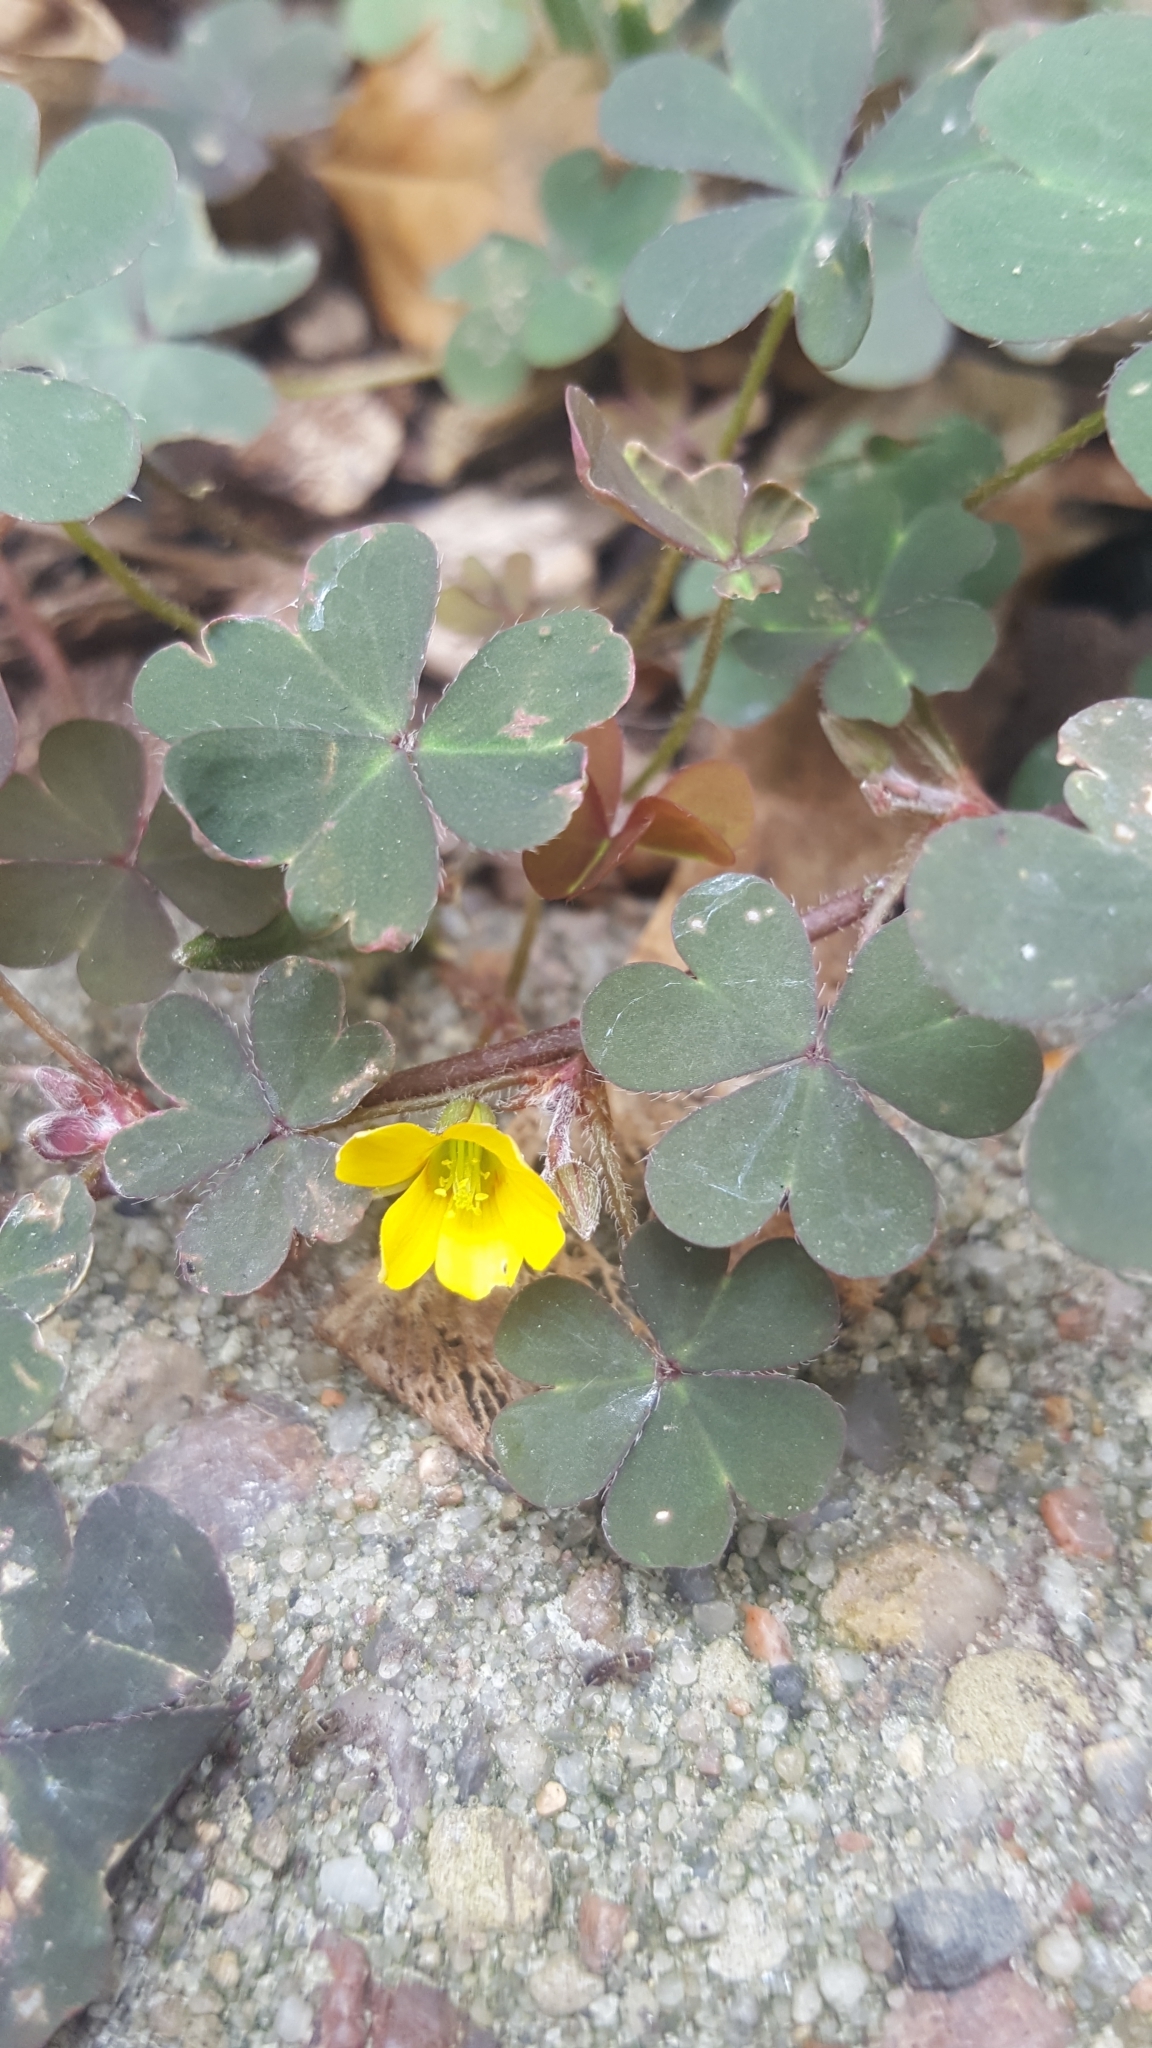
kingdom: Plantae
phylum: Tracheophyta
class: Magnoliopsida
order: Oxalidales
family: Oxalidaceae
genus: Oxalis
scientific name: Oxalis corniculata
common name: Procumbent yellow-sorrel
